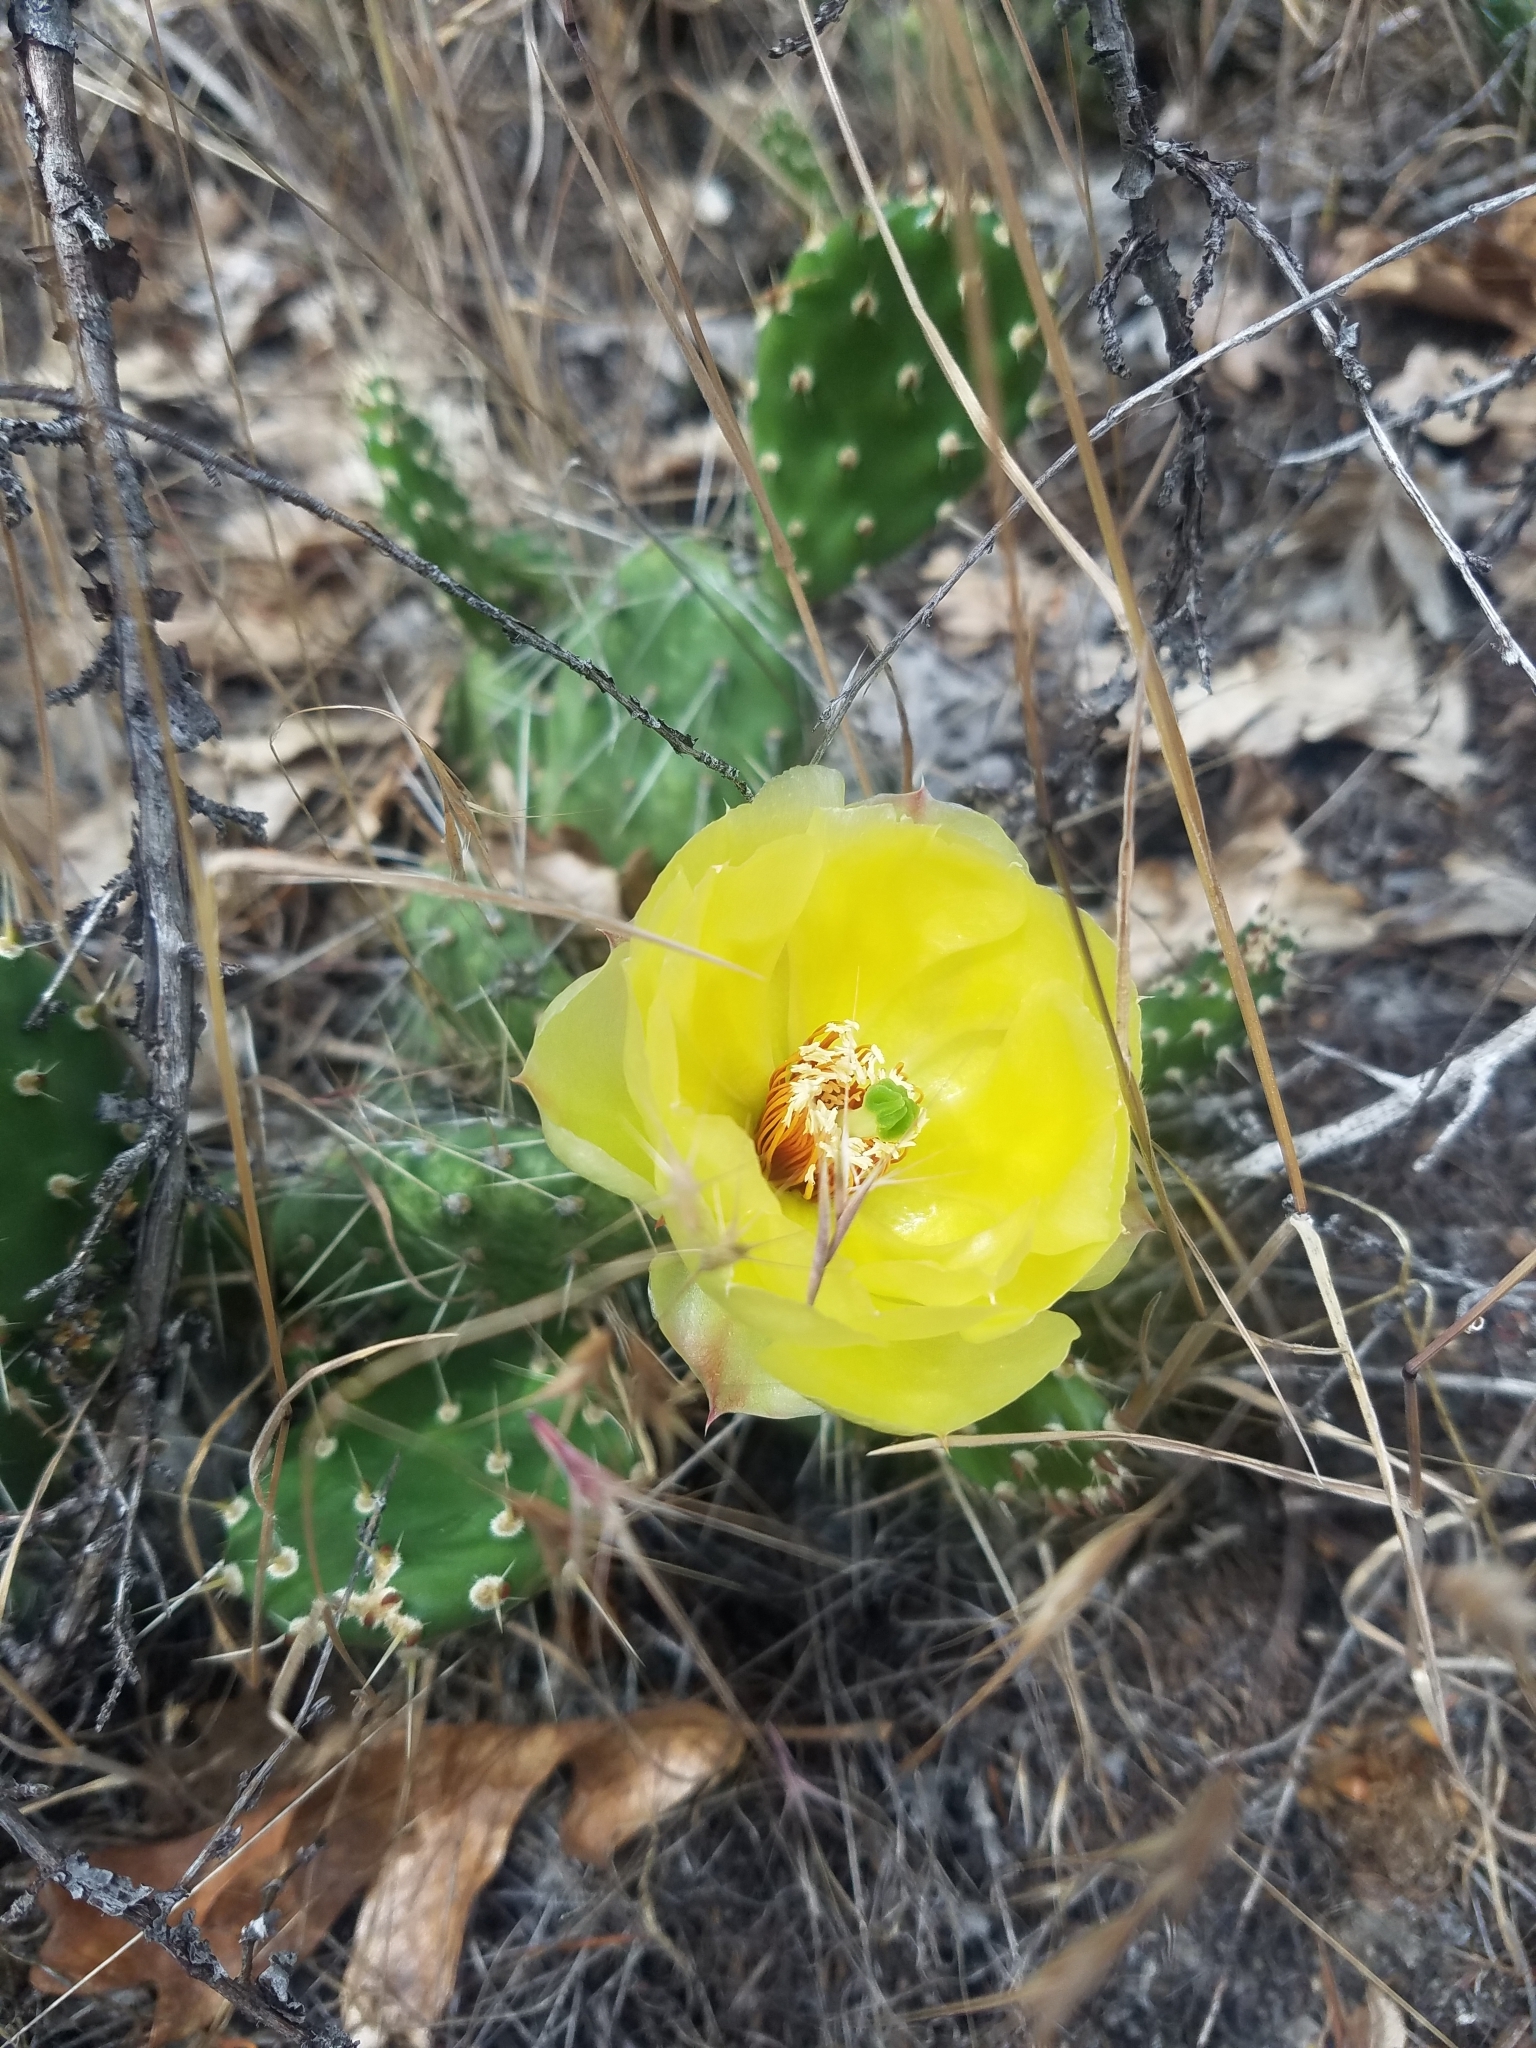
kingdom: Plantae
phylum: Tracheophyta
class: Magnoliopsida
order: Caryophyllales
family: Cactaceae
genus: Opuntia
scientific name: Opuntia columbiana
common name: Columbia prickly-pear
